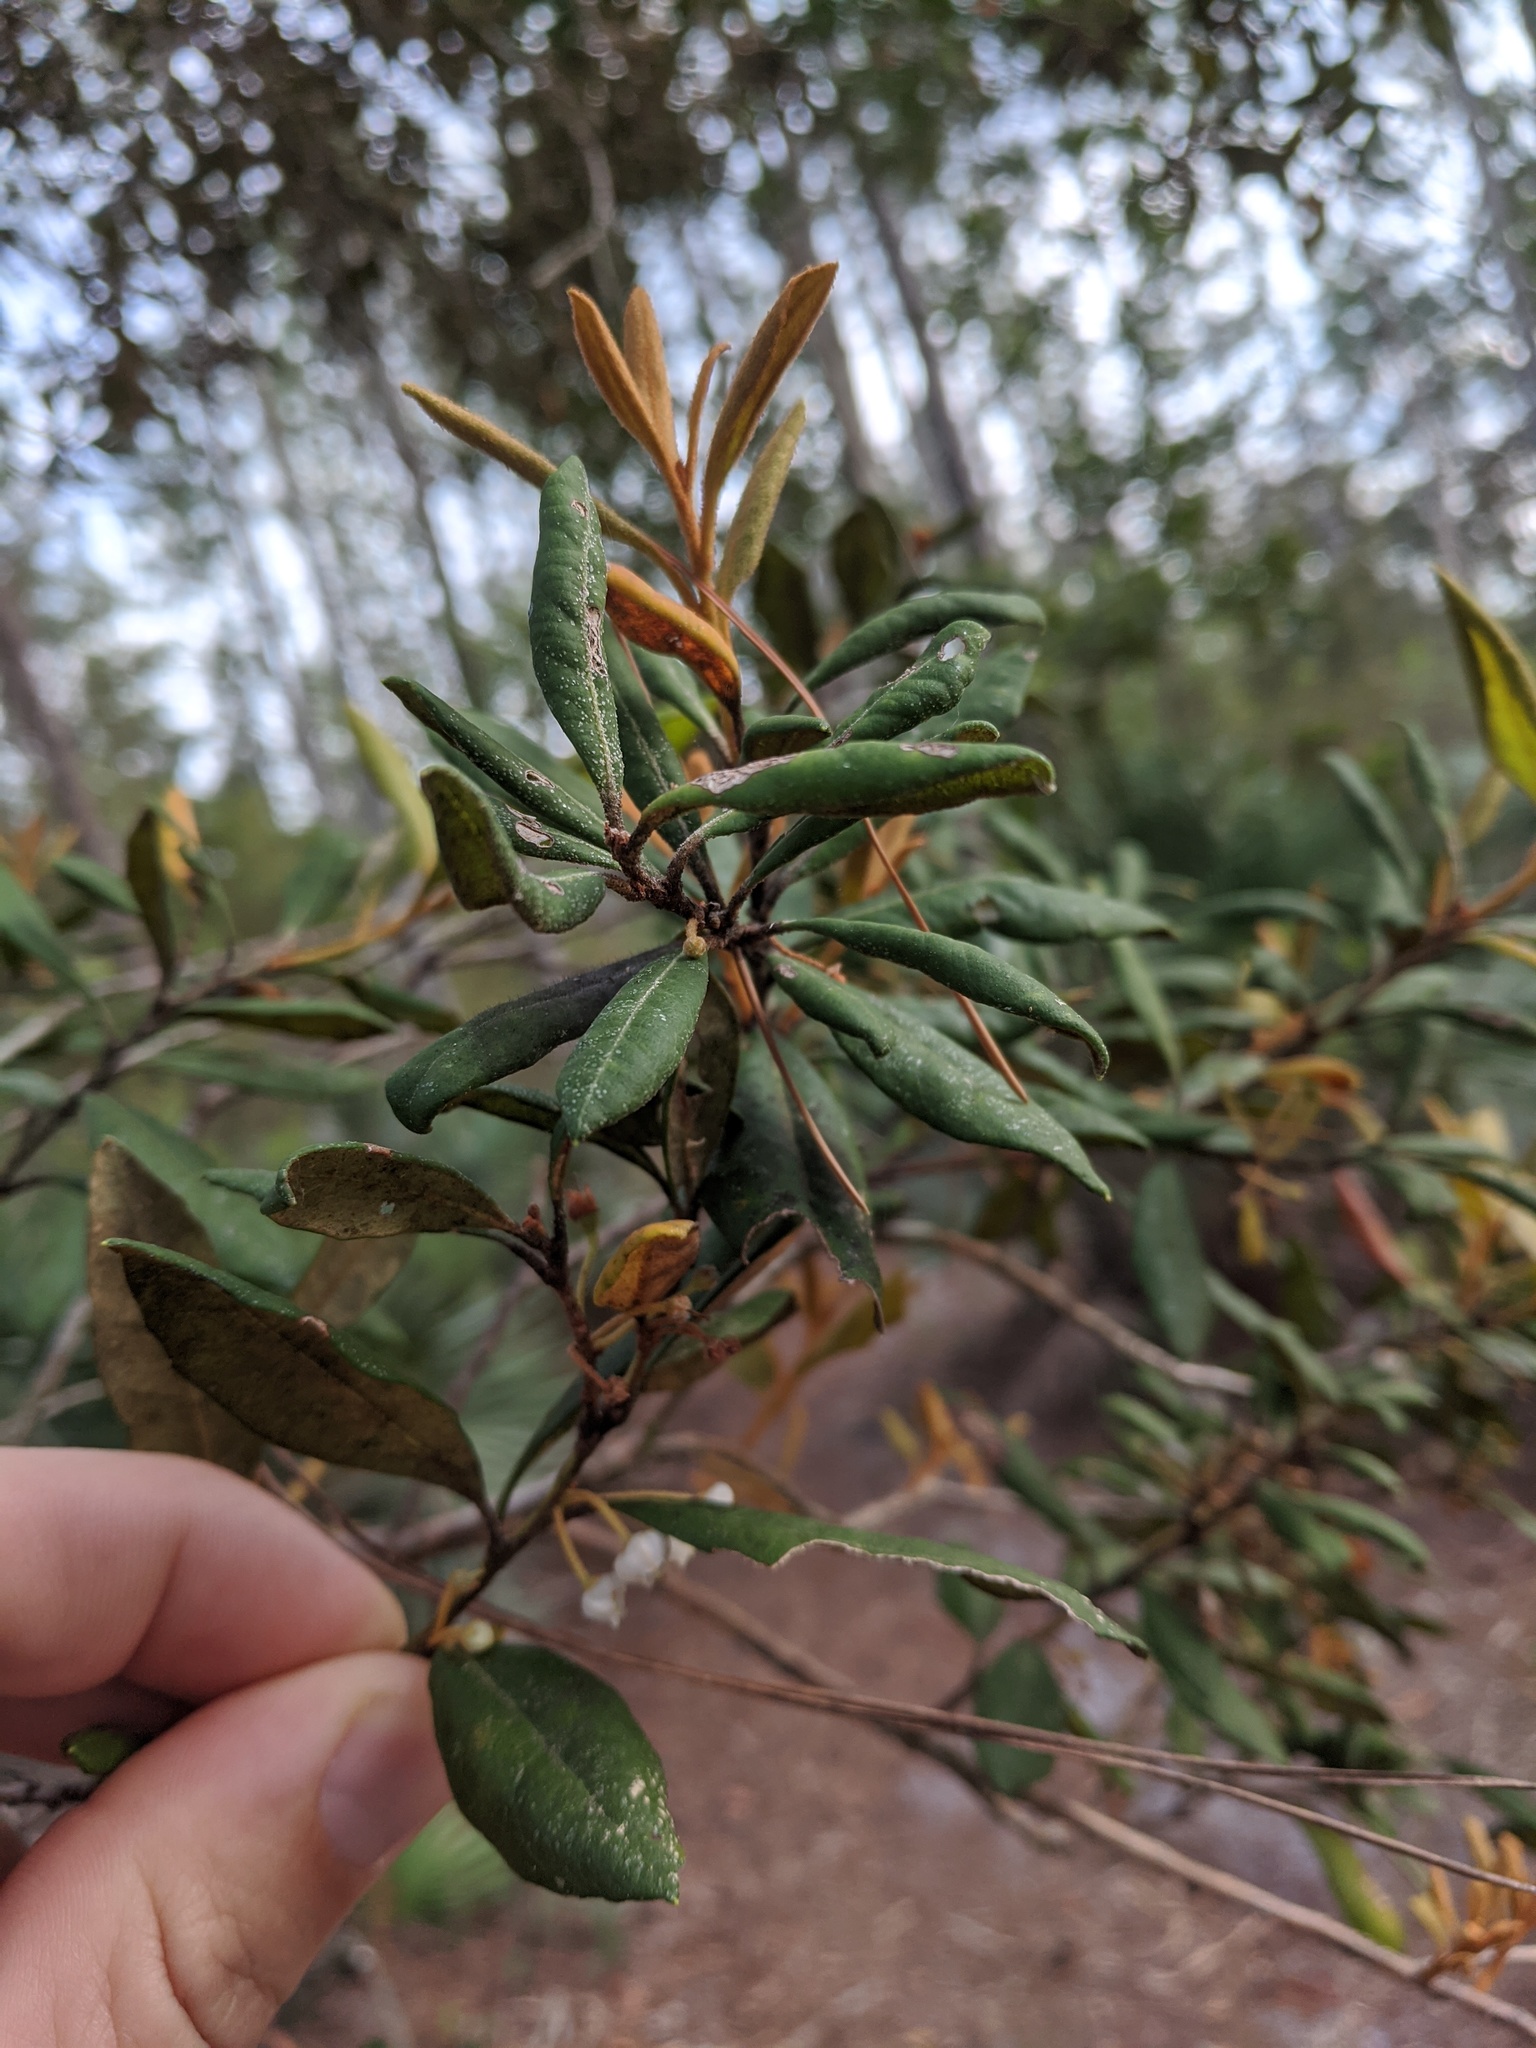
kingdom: Plantae
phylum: Tracheophyta
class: Magnoliopsida
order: Ericales
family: Ericaceae
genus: Lyonia
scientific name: Lyonia ferruginea
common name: Rusty lyonia
